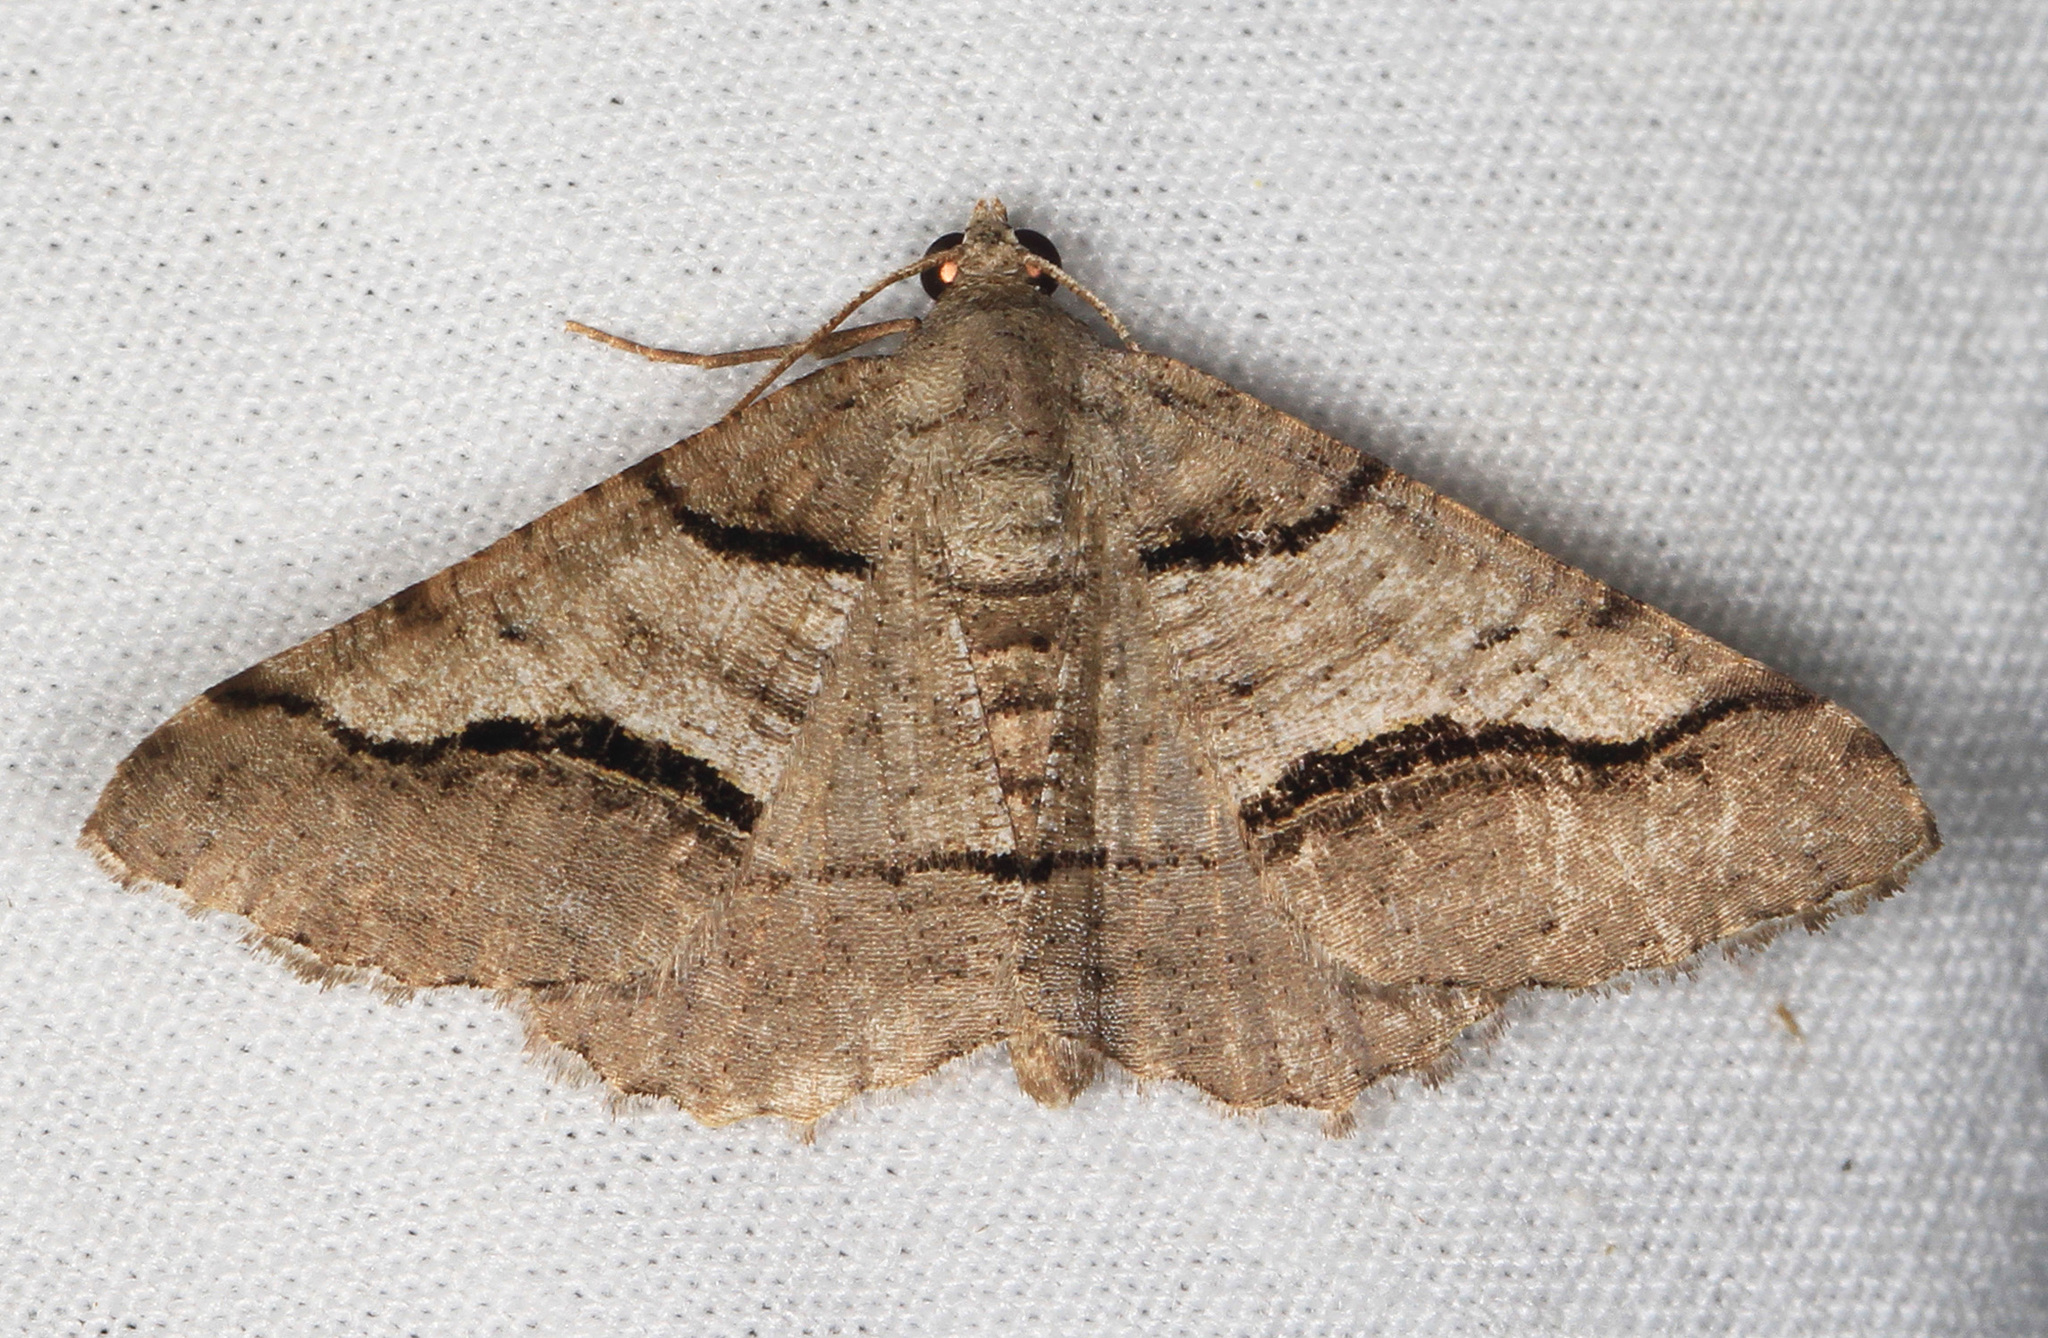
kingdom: Animalia
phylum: Arthropoda
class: Insecta
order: Lepidoptera
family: Geometridae
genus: Digrammia
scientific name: Digrammia continuata
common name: Curve-lined angle
